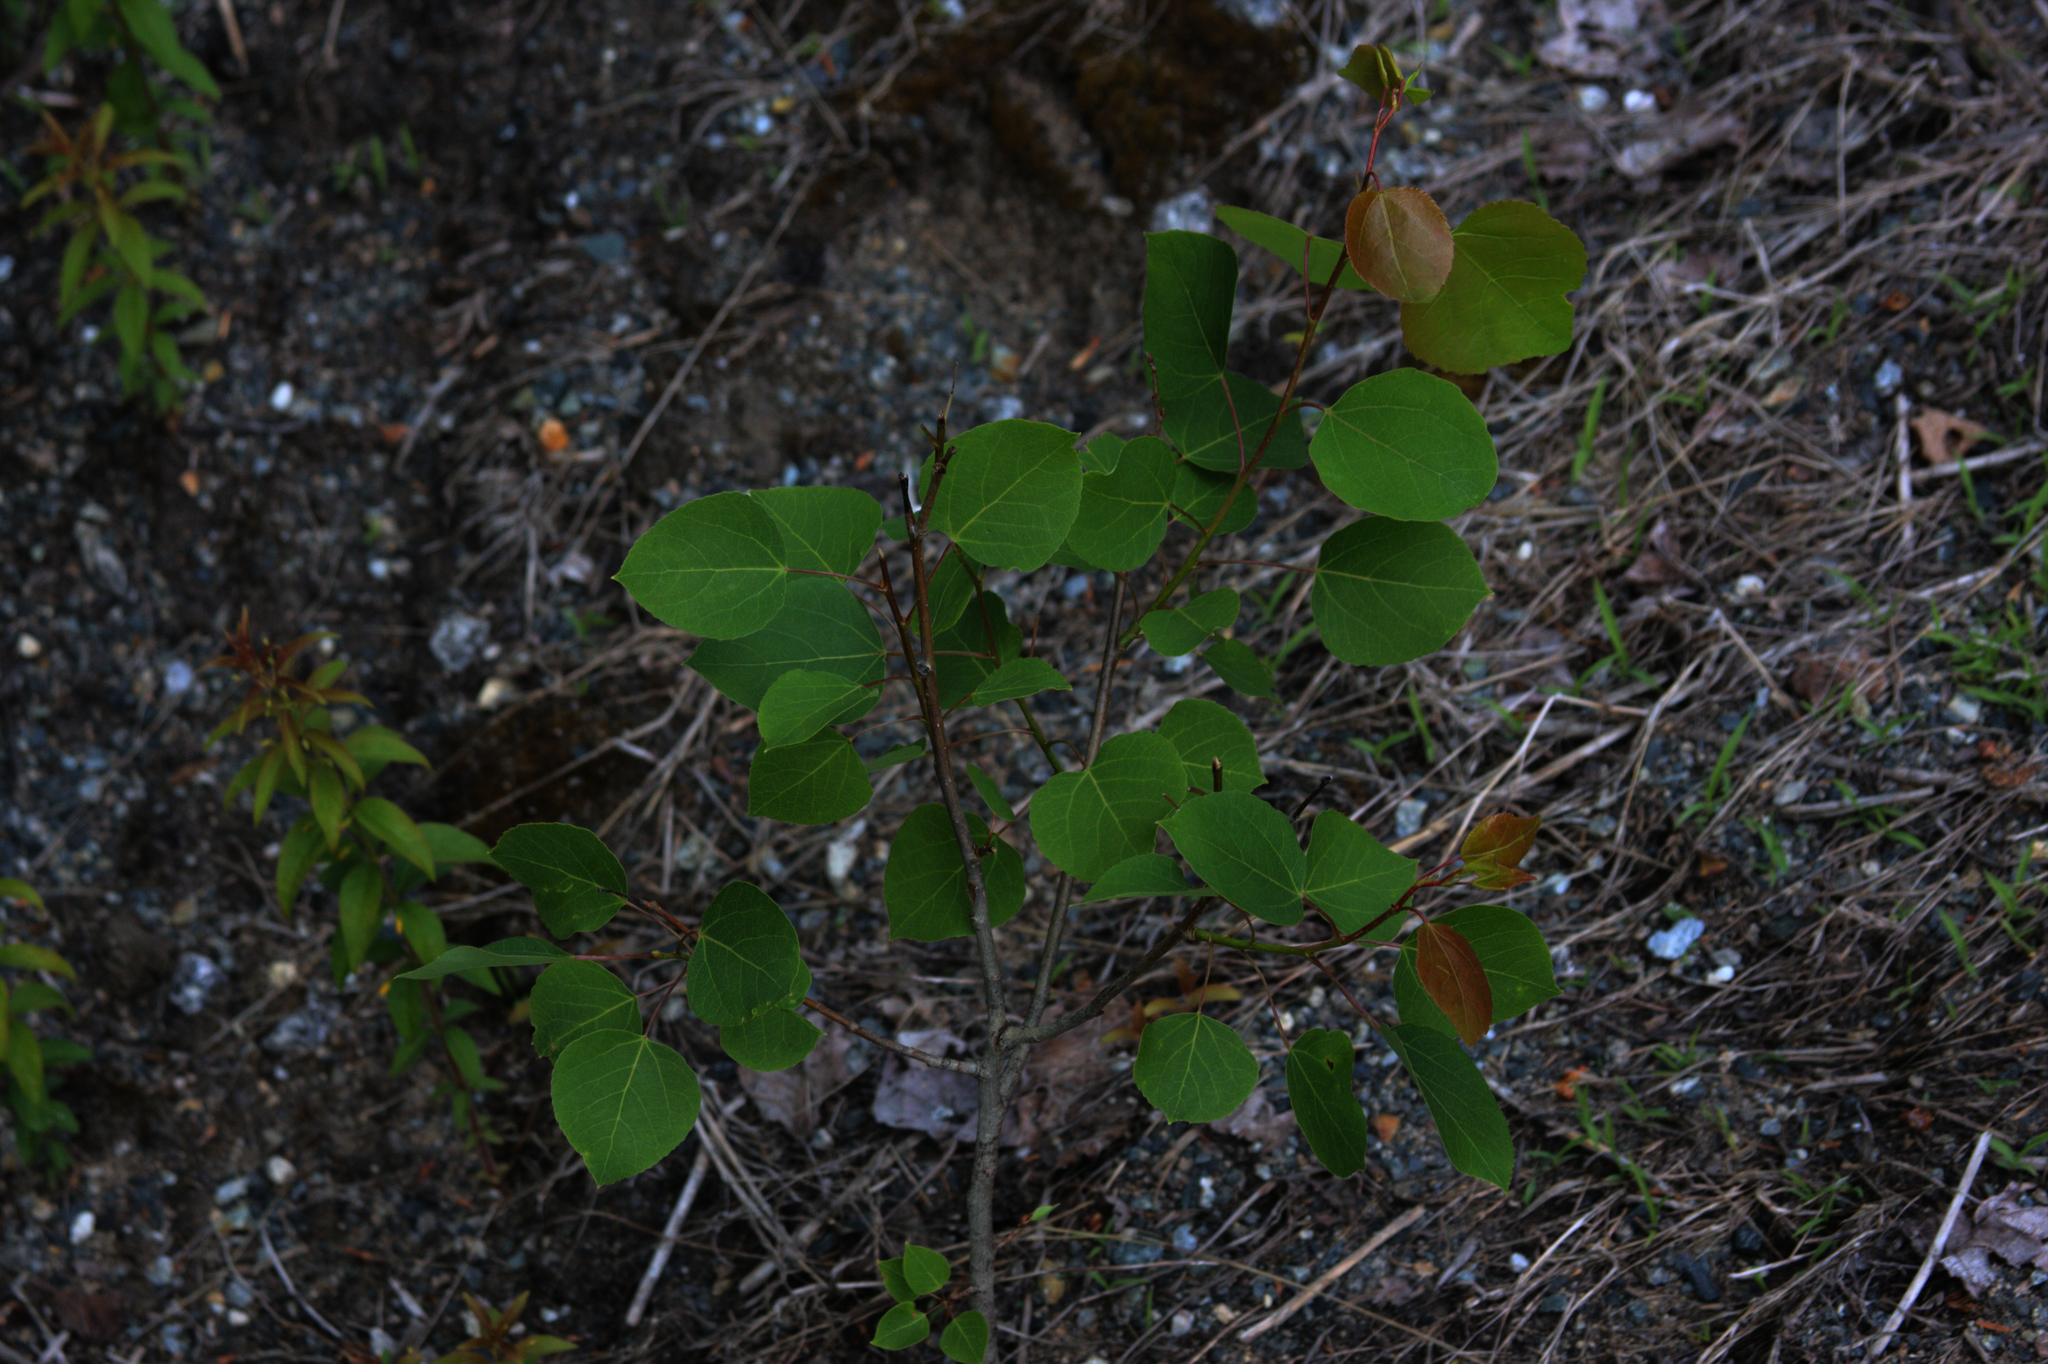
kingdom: Plantae
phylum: Tracheophyta
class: Magnoliopsida
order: Malpighiales
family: Salicaceae
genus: Populus
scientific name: Populus tremuloides
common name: Quaking aspen
